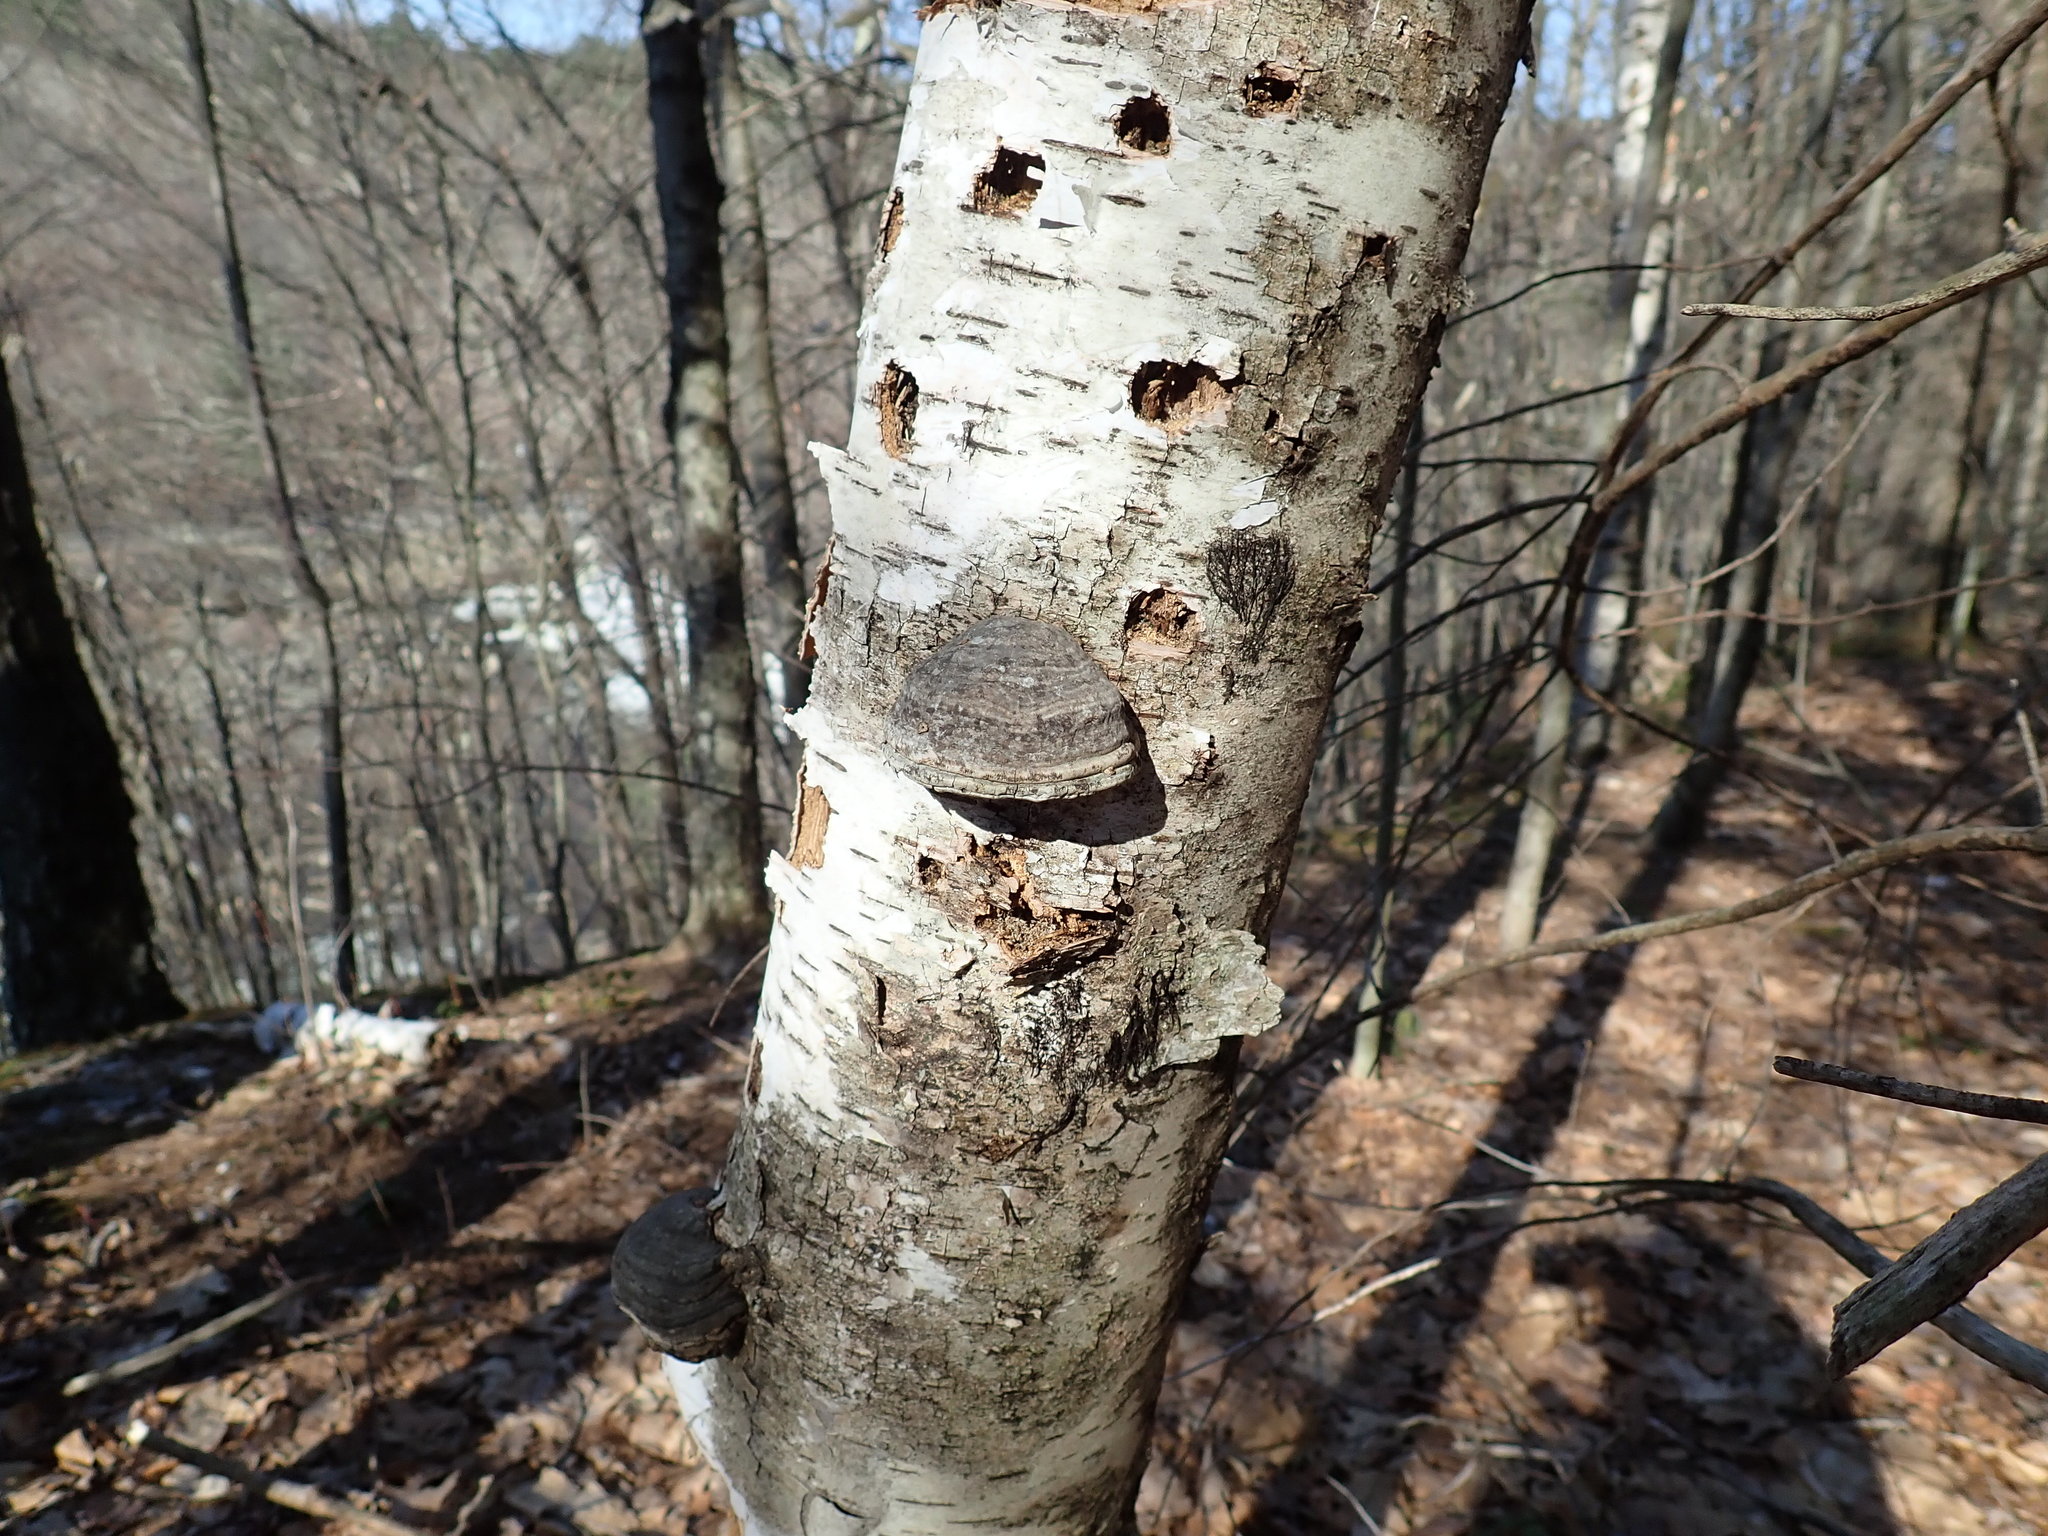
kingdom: Fungi
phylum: Basidiomycota
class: Agaricomycetes
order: Polyporales
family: Polyporaceae
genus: Fomes
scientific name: Fomes fomentarius
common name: Hoof fungus
